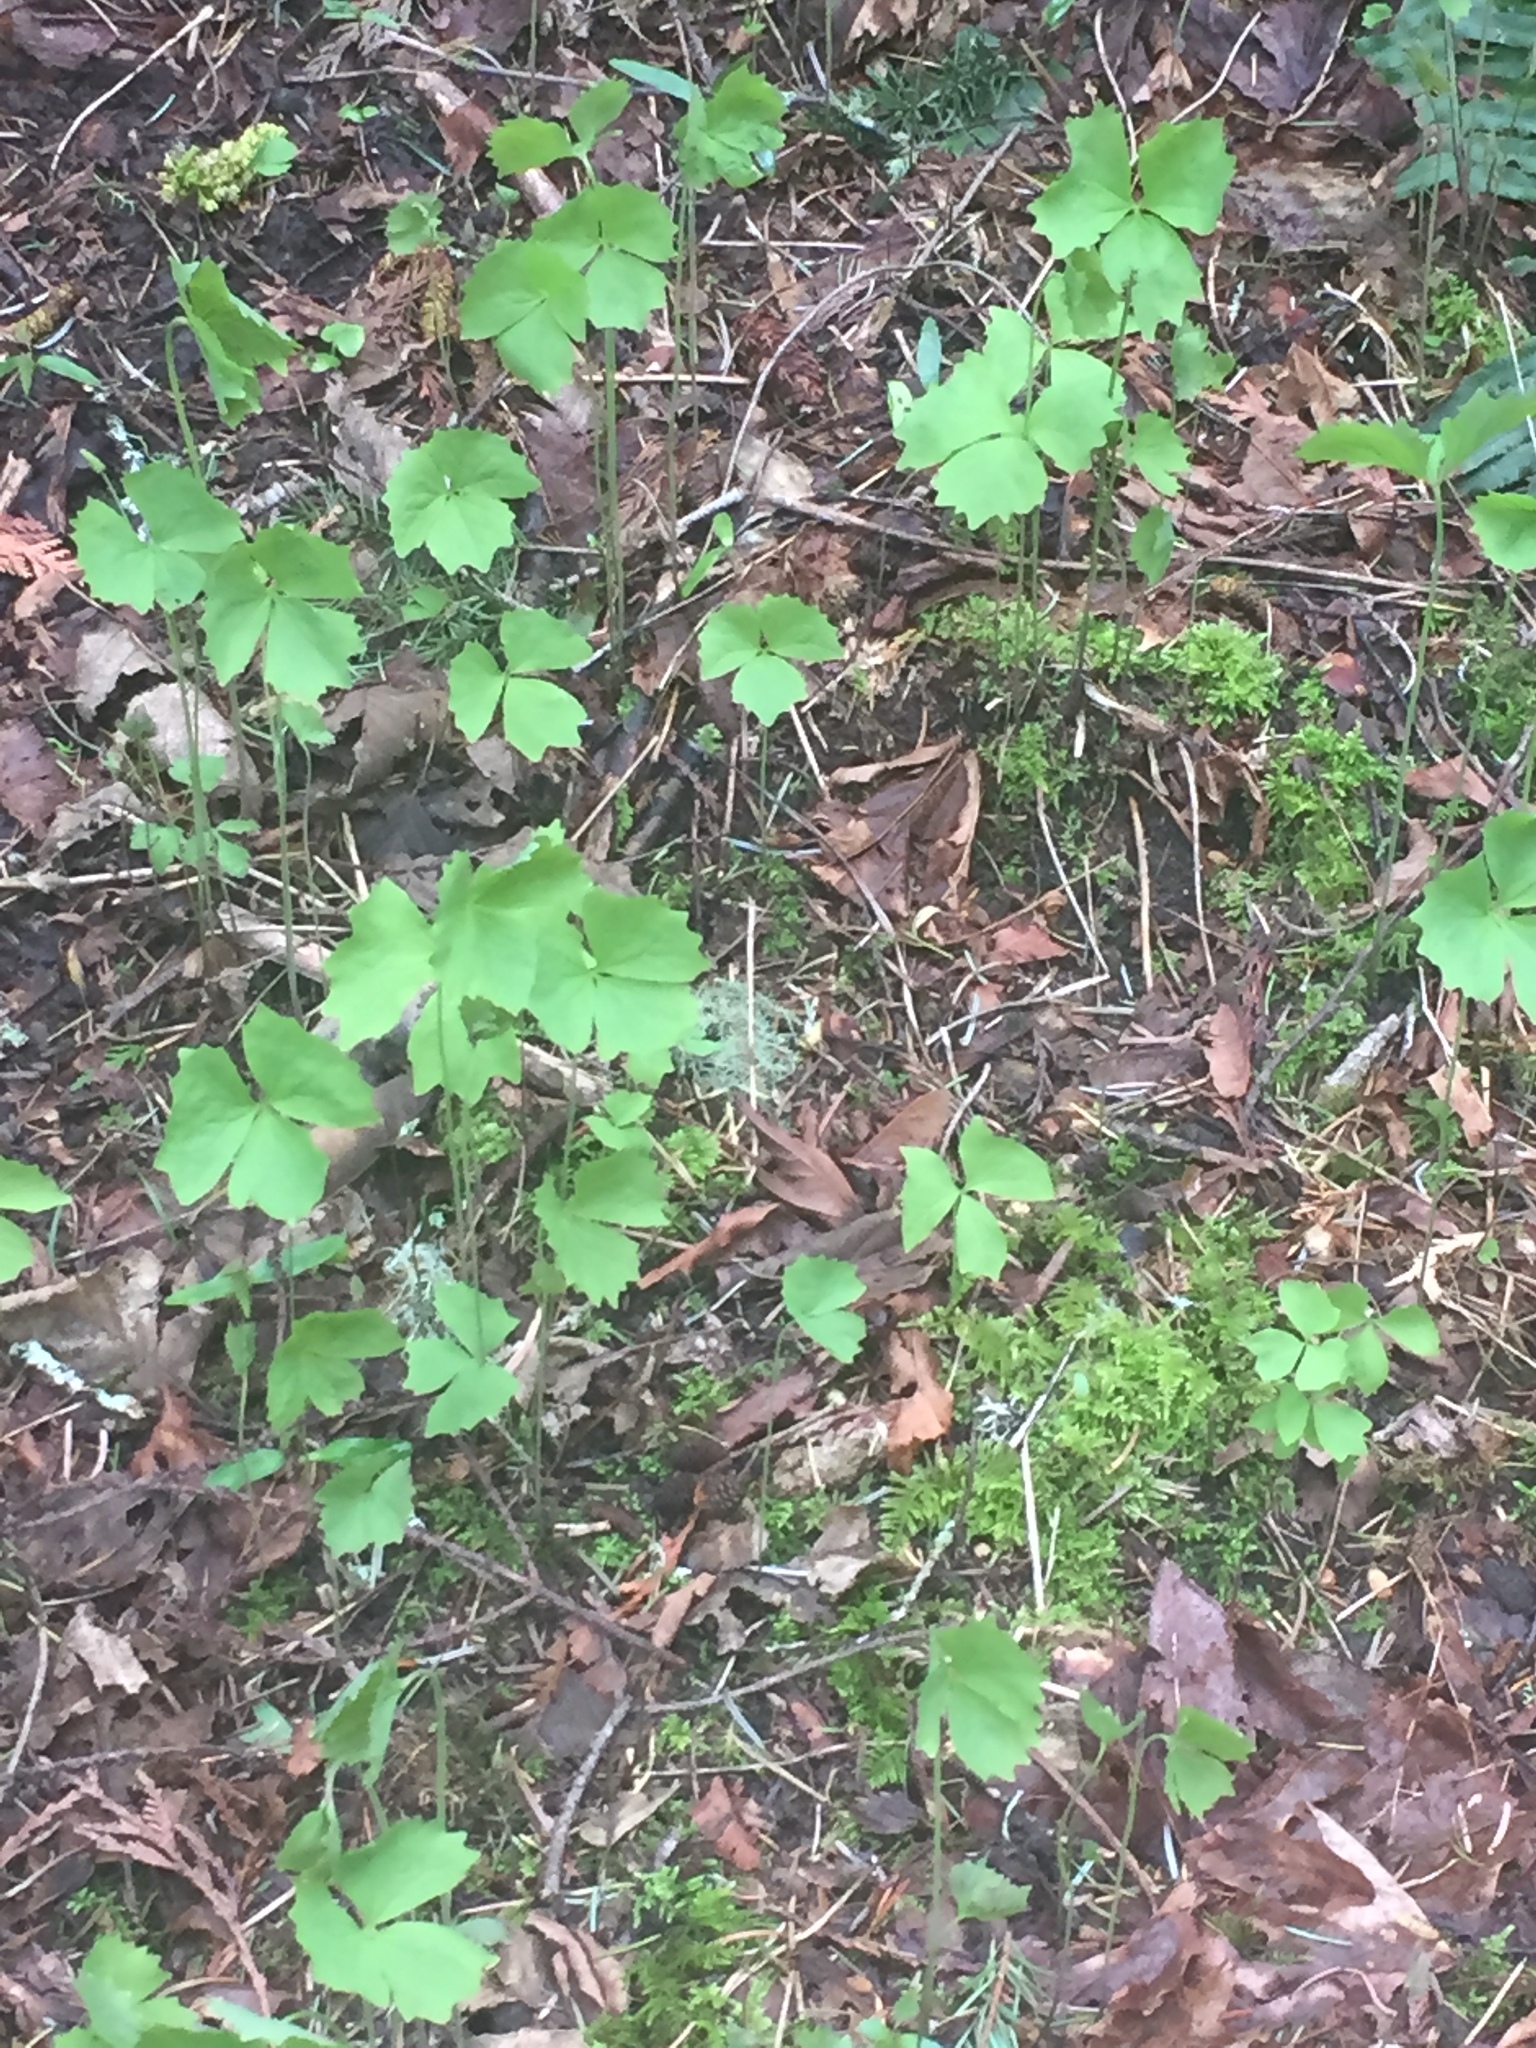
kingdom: Plantae
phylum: Tracheophyta
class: Magnoliopsida
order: Ranunculales
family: Berberidaceae
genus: Achlys
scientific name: Achlys triphylla
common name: Vanilla-leaf
